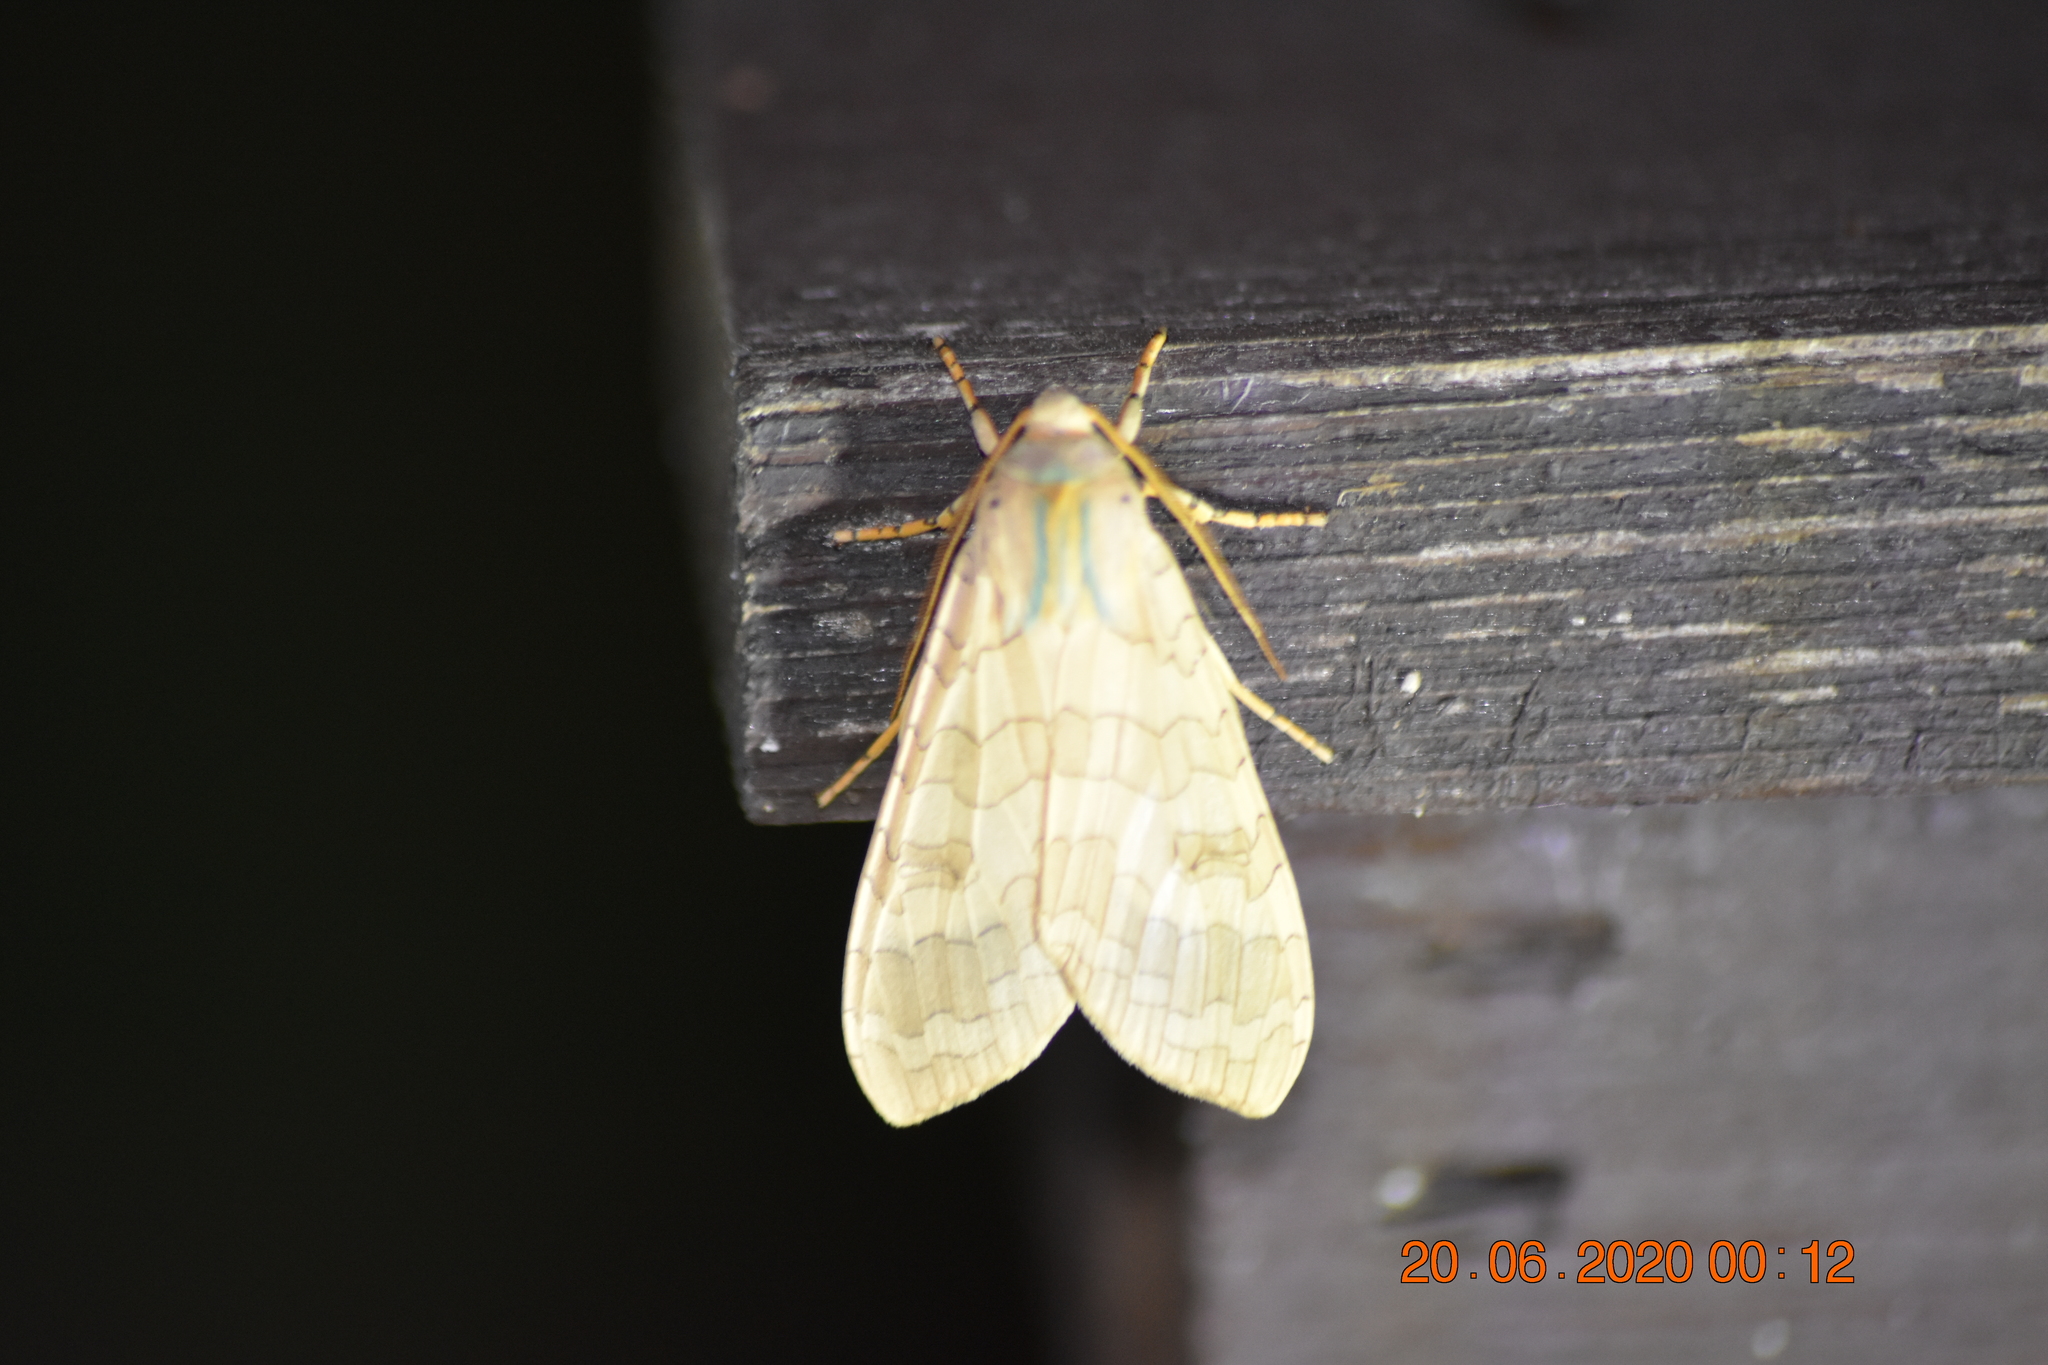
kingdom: Animalia
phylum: Arthropoda
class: Insecta
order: Lepidoptera
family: Erebidae
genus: Halysidota
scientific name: Halysidota tessellaris
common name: Banded tussock moth
